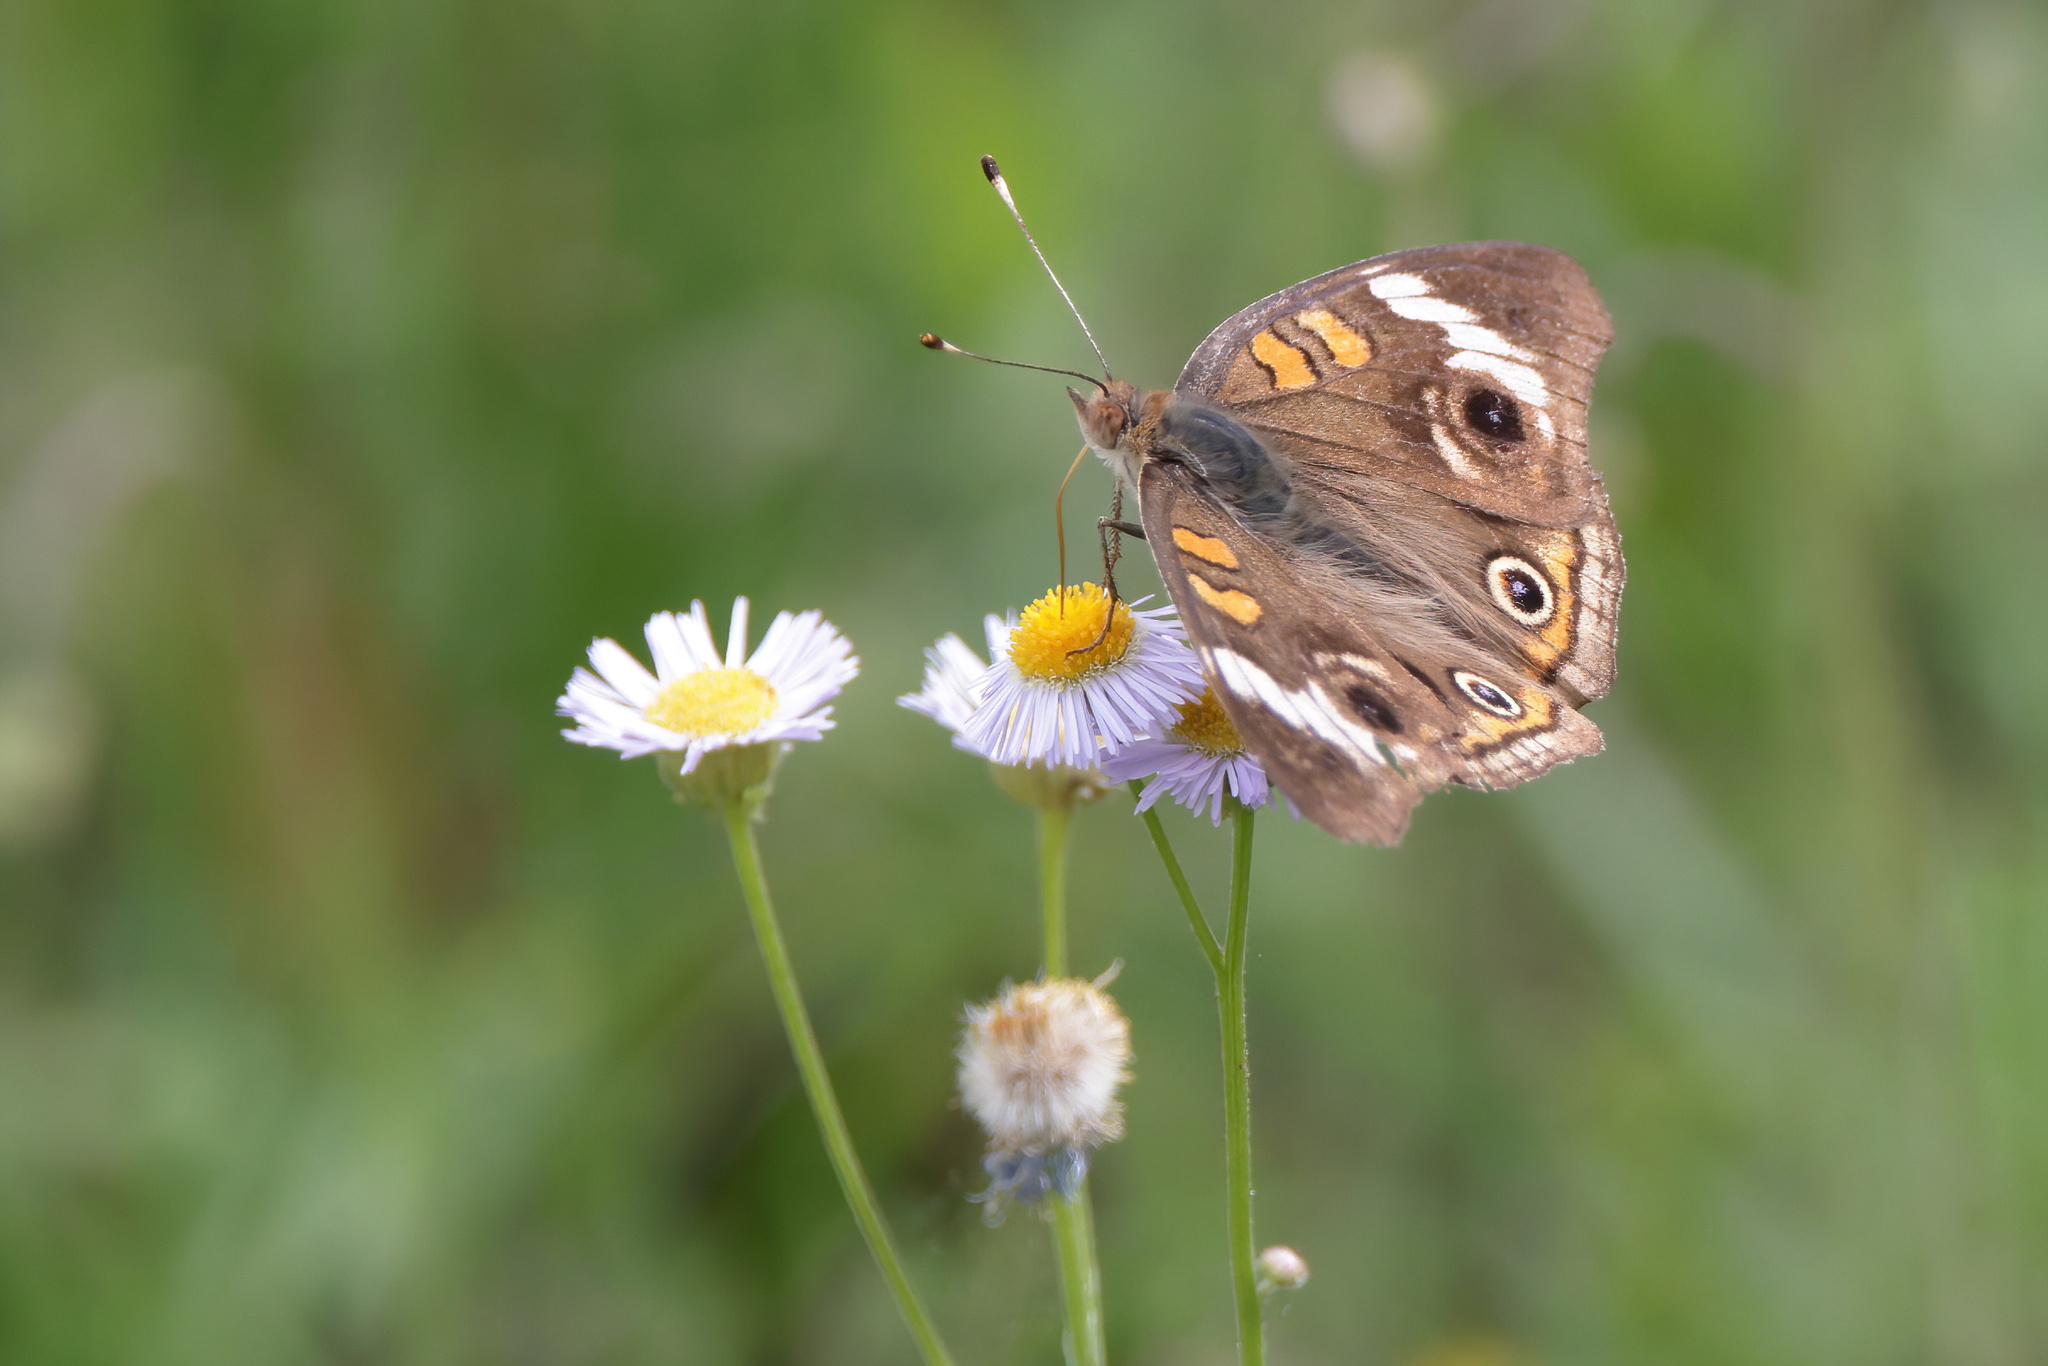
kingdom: Animalia
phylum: Arthropoda
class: Insecta
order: Lepidoptera
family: Nymphalidae
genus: Junonia
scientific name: Junonia coenia
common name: Common buckeye
